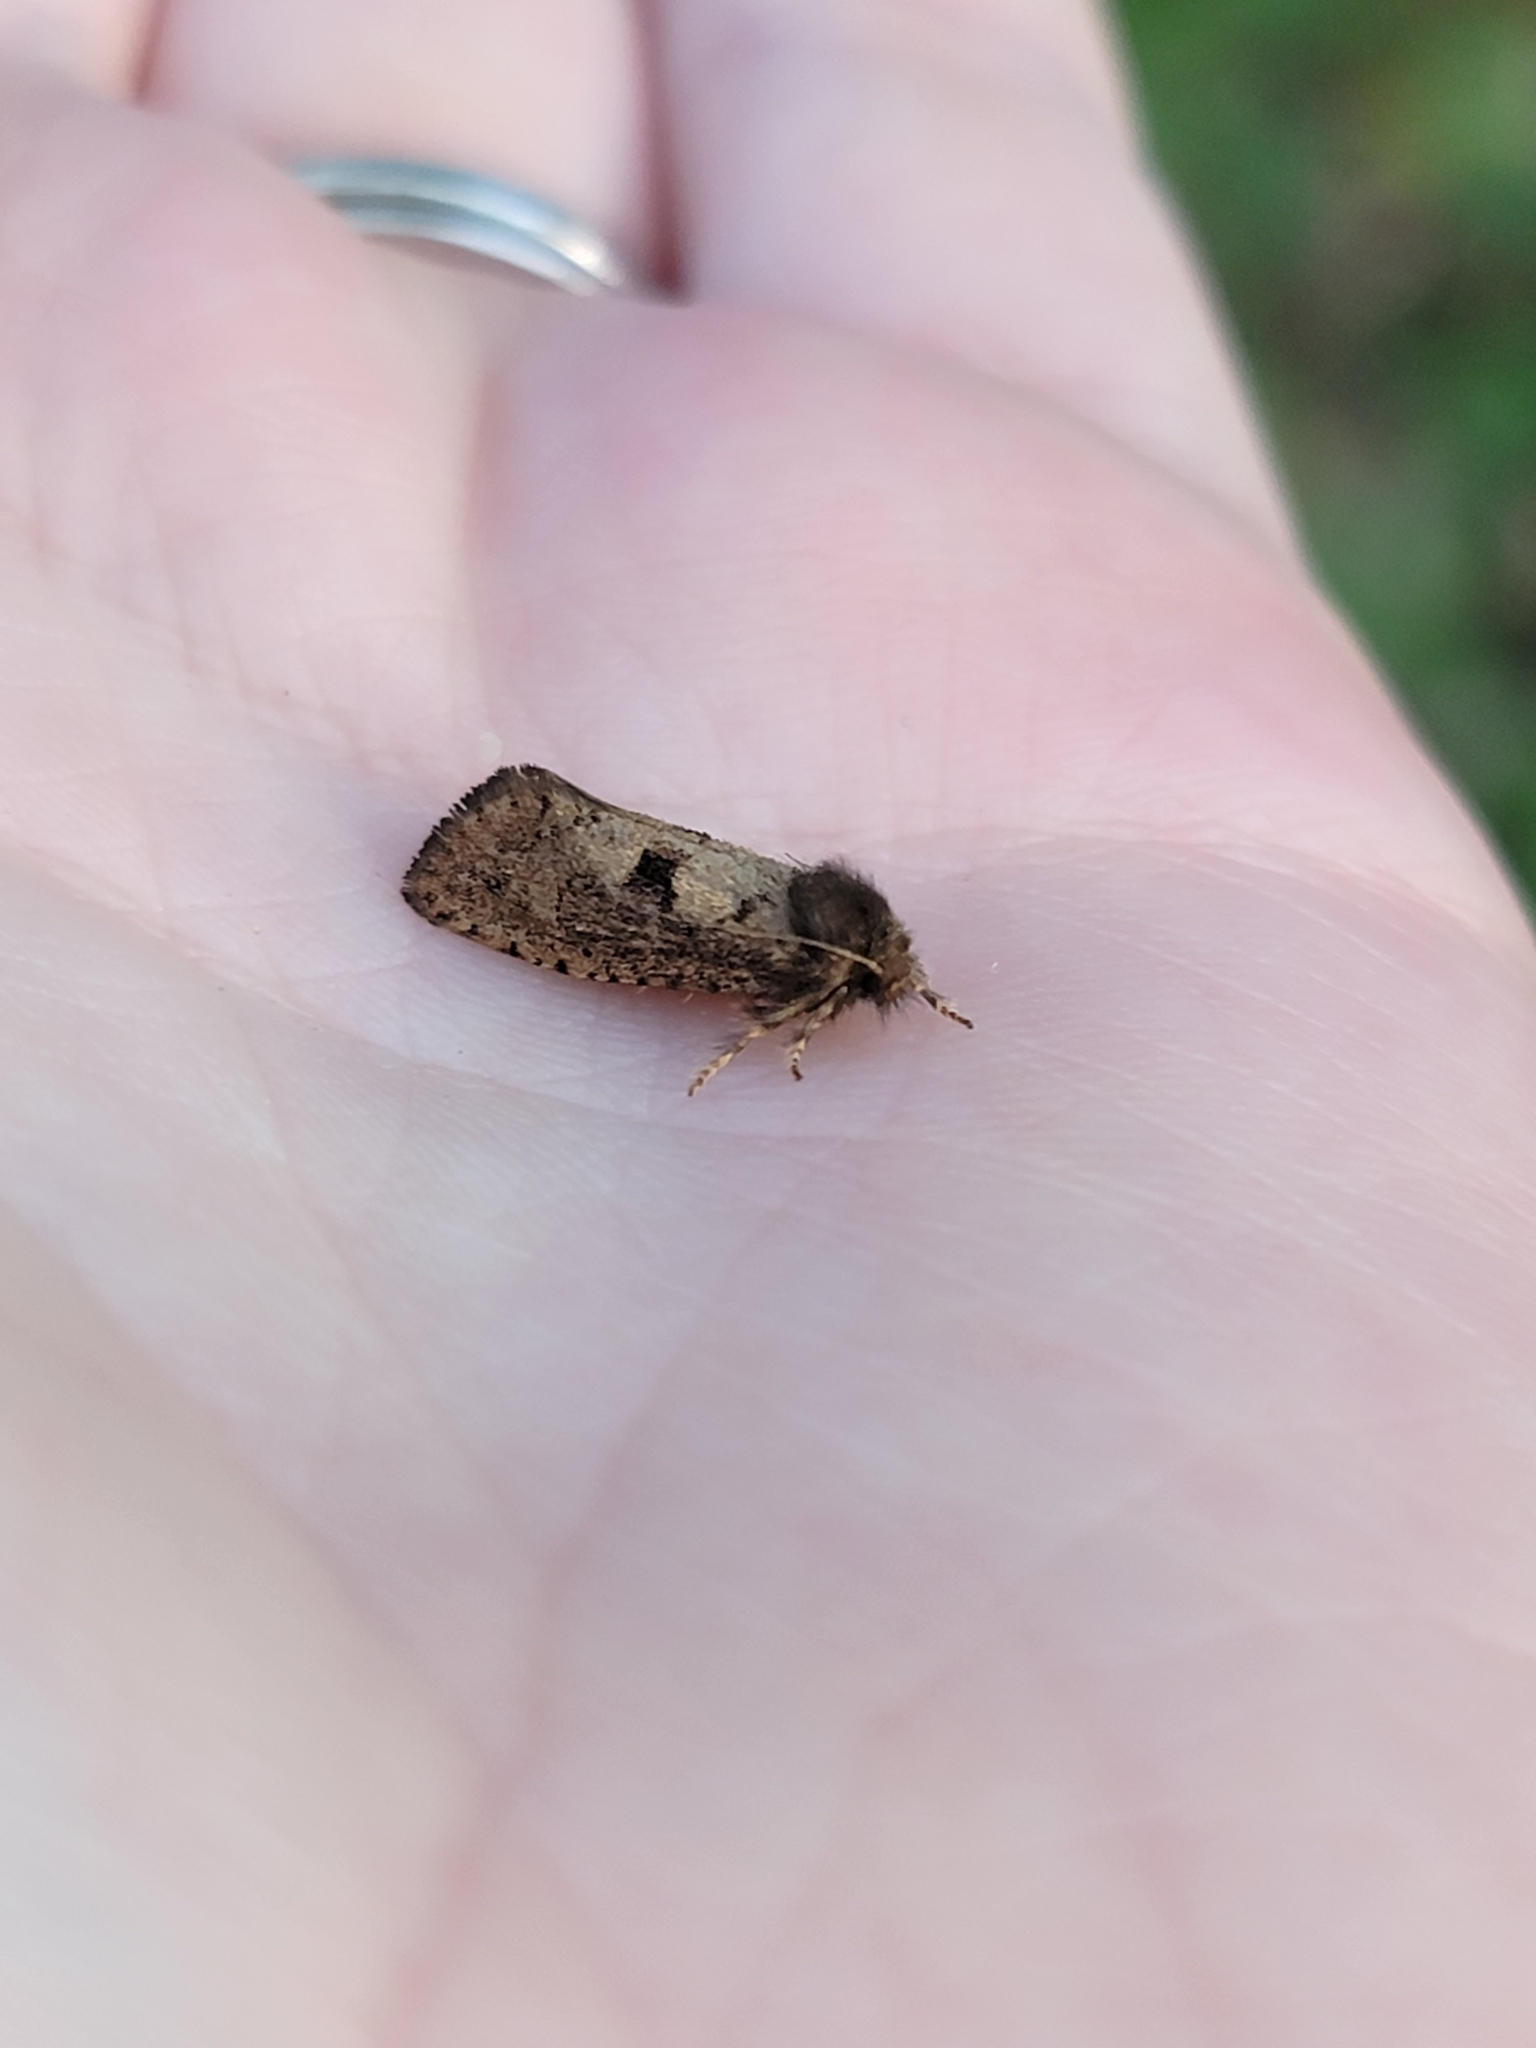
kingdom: Animalia
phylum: Arthropoda
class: Insecta
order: Lepidoptera
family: Tineidae
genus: Acrolophus
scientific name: Acrolophus mora
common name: Dark acrolophus
